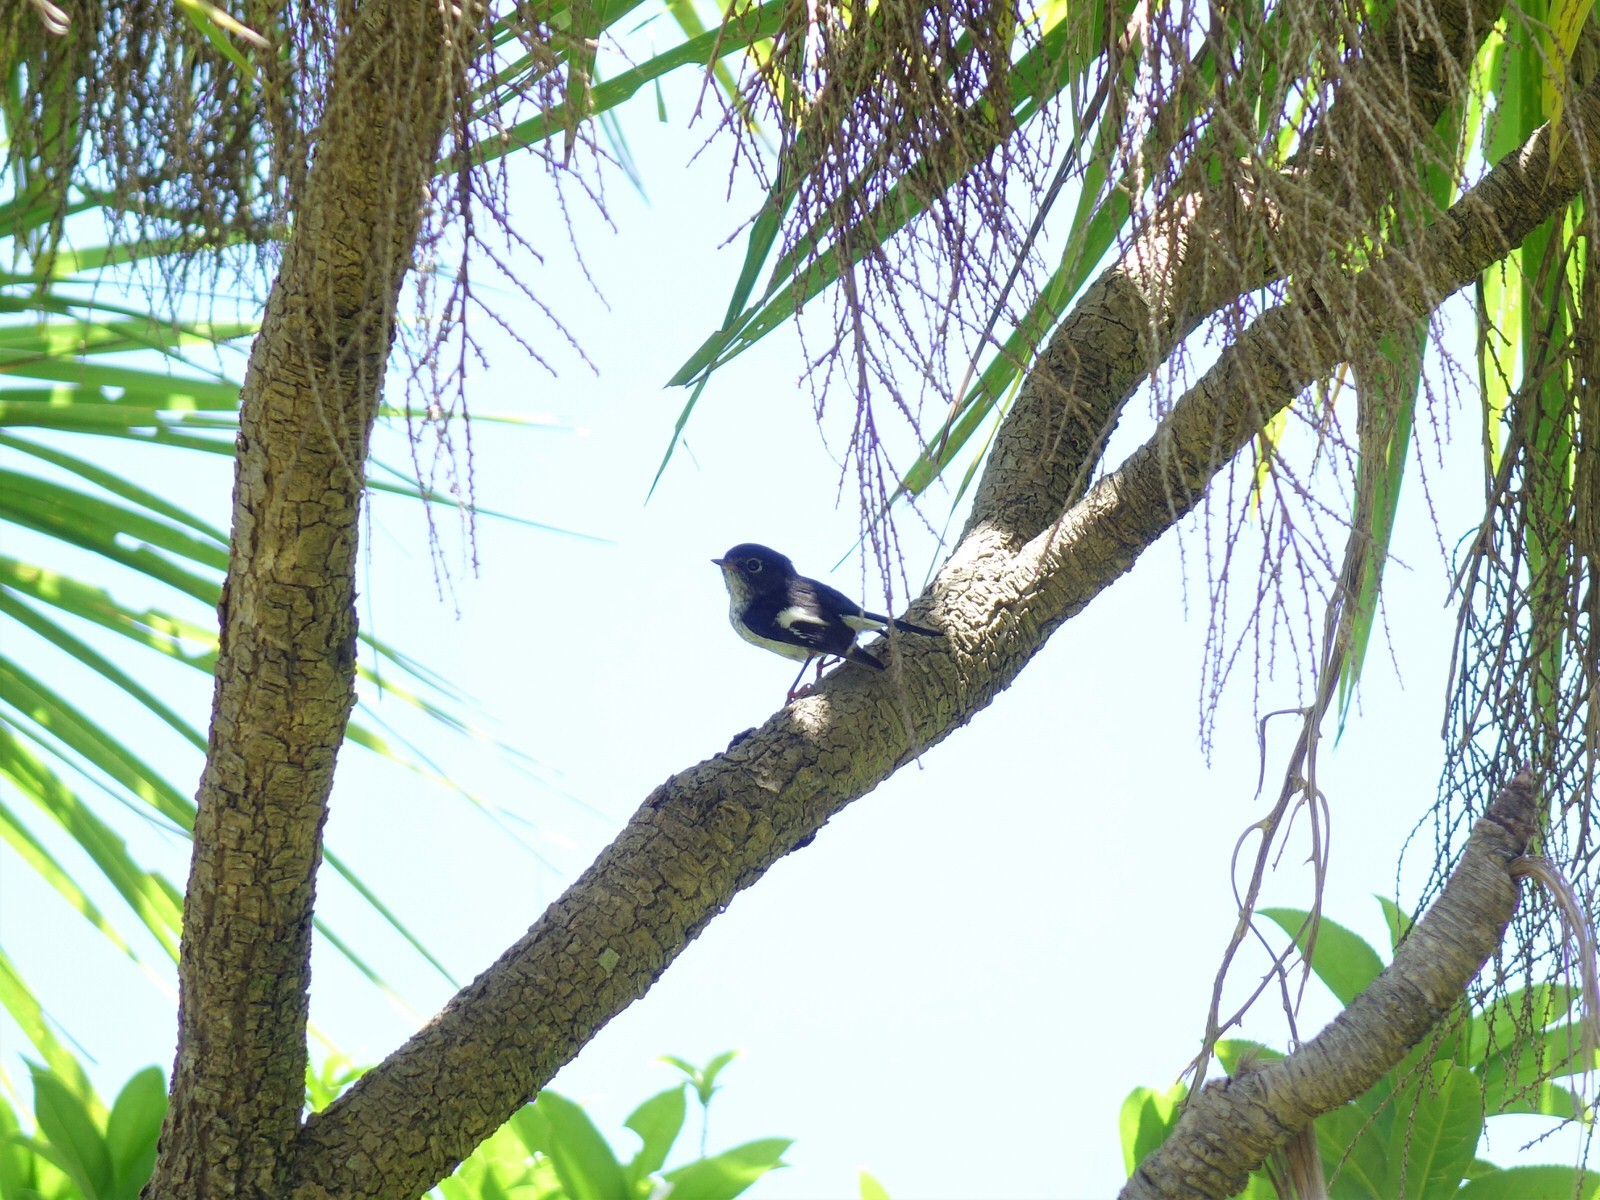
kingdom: Animalia
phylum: Chordata
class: Aves
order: Passeriformes
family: Petroicidae
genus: Petroica
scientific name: Petroica macrocephala
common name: Tomtit
